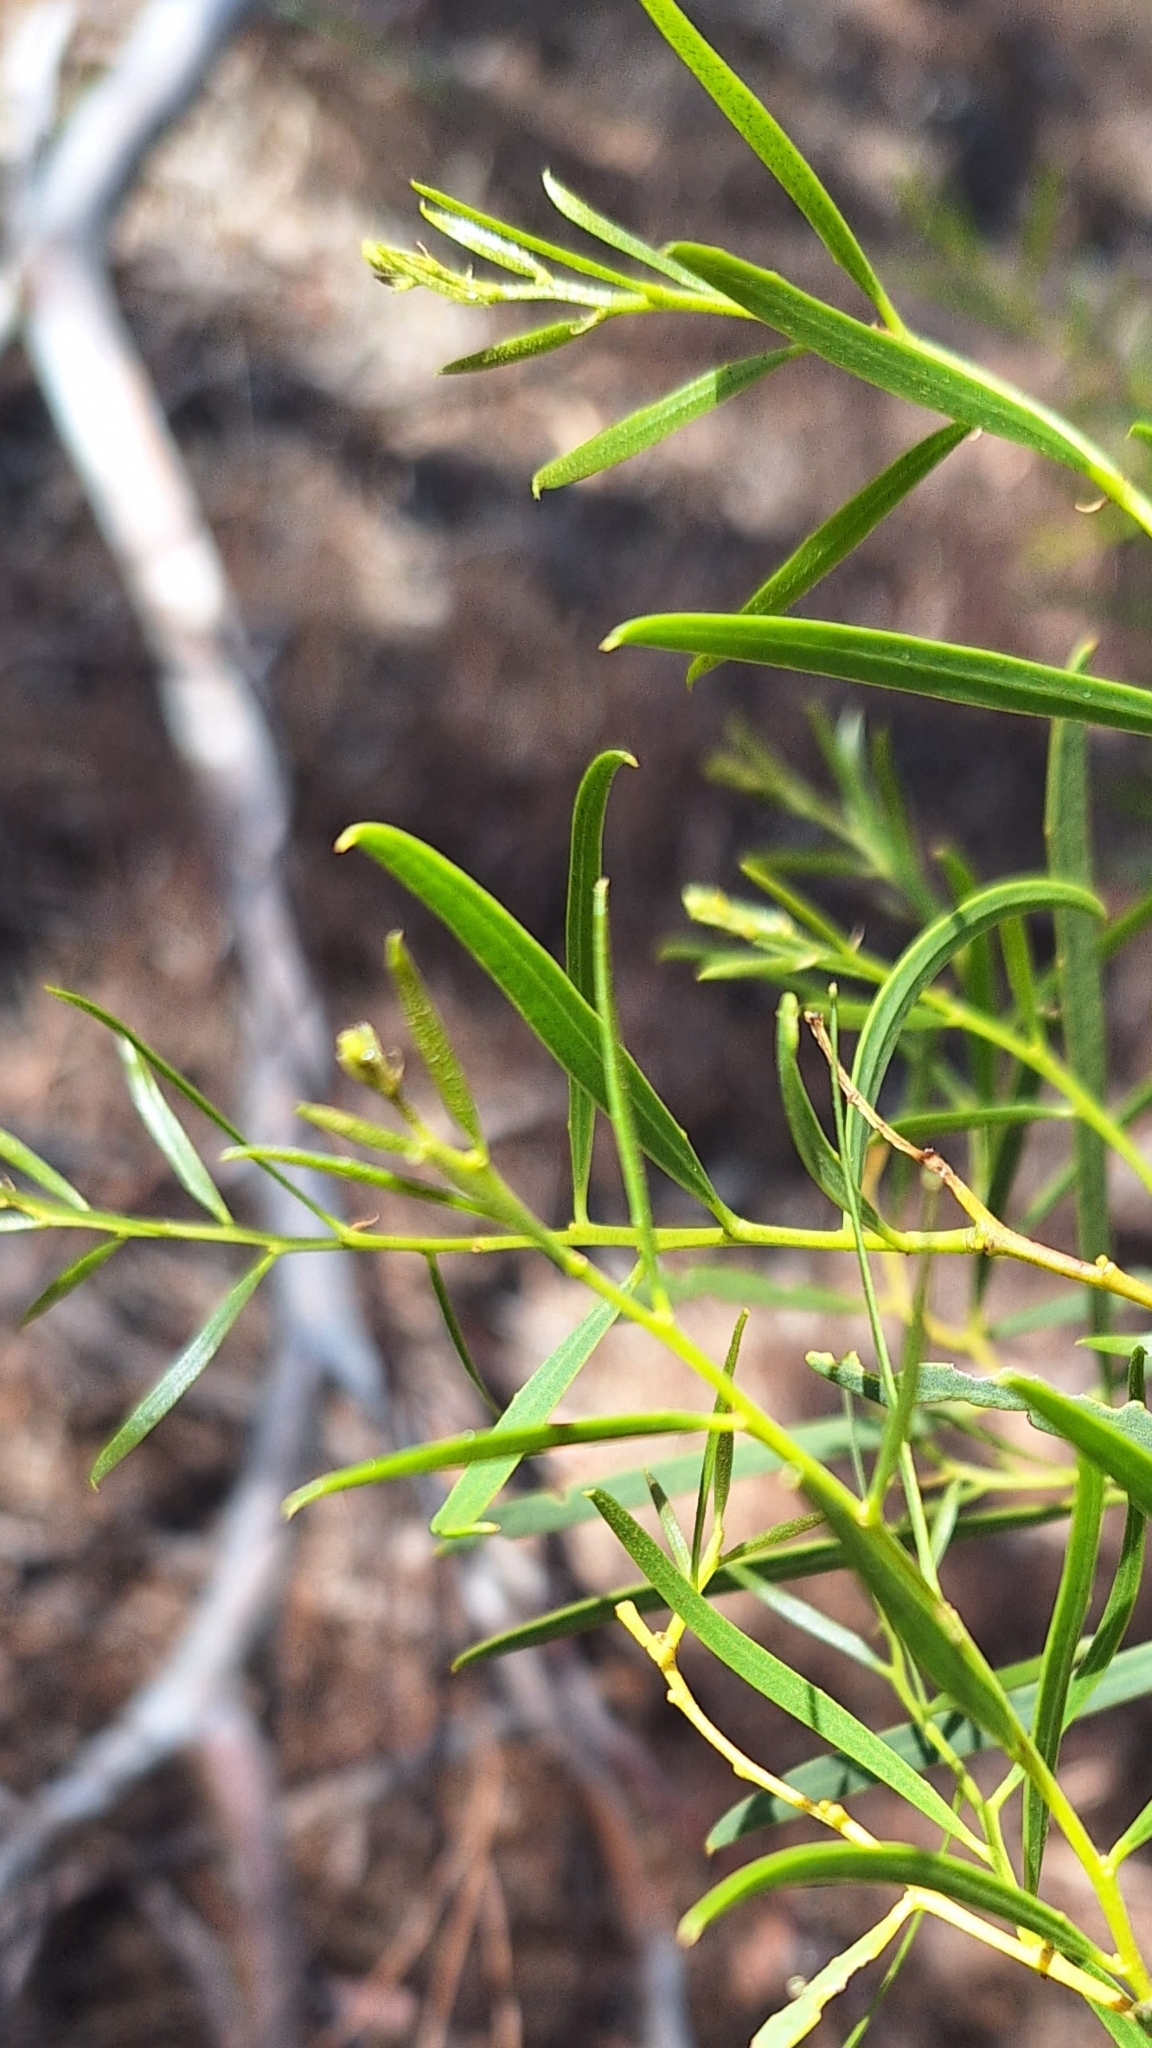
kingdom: Plantae
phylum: Tracheophyta
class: Magnoliopsida
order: Fabales
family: Fabaceae
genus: Acacia
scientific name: Acacia ligulata
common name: Dune wattle
